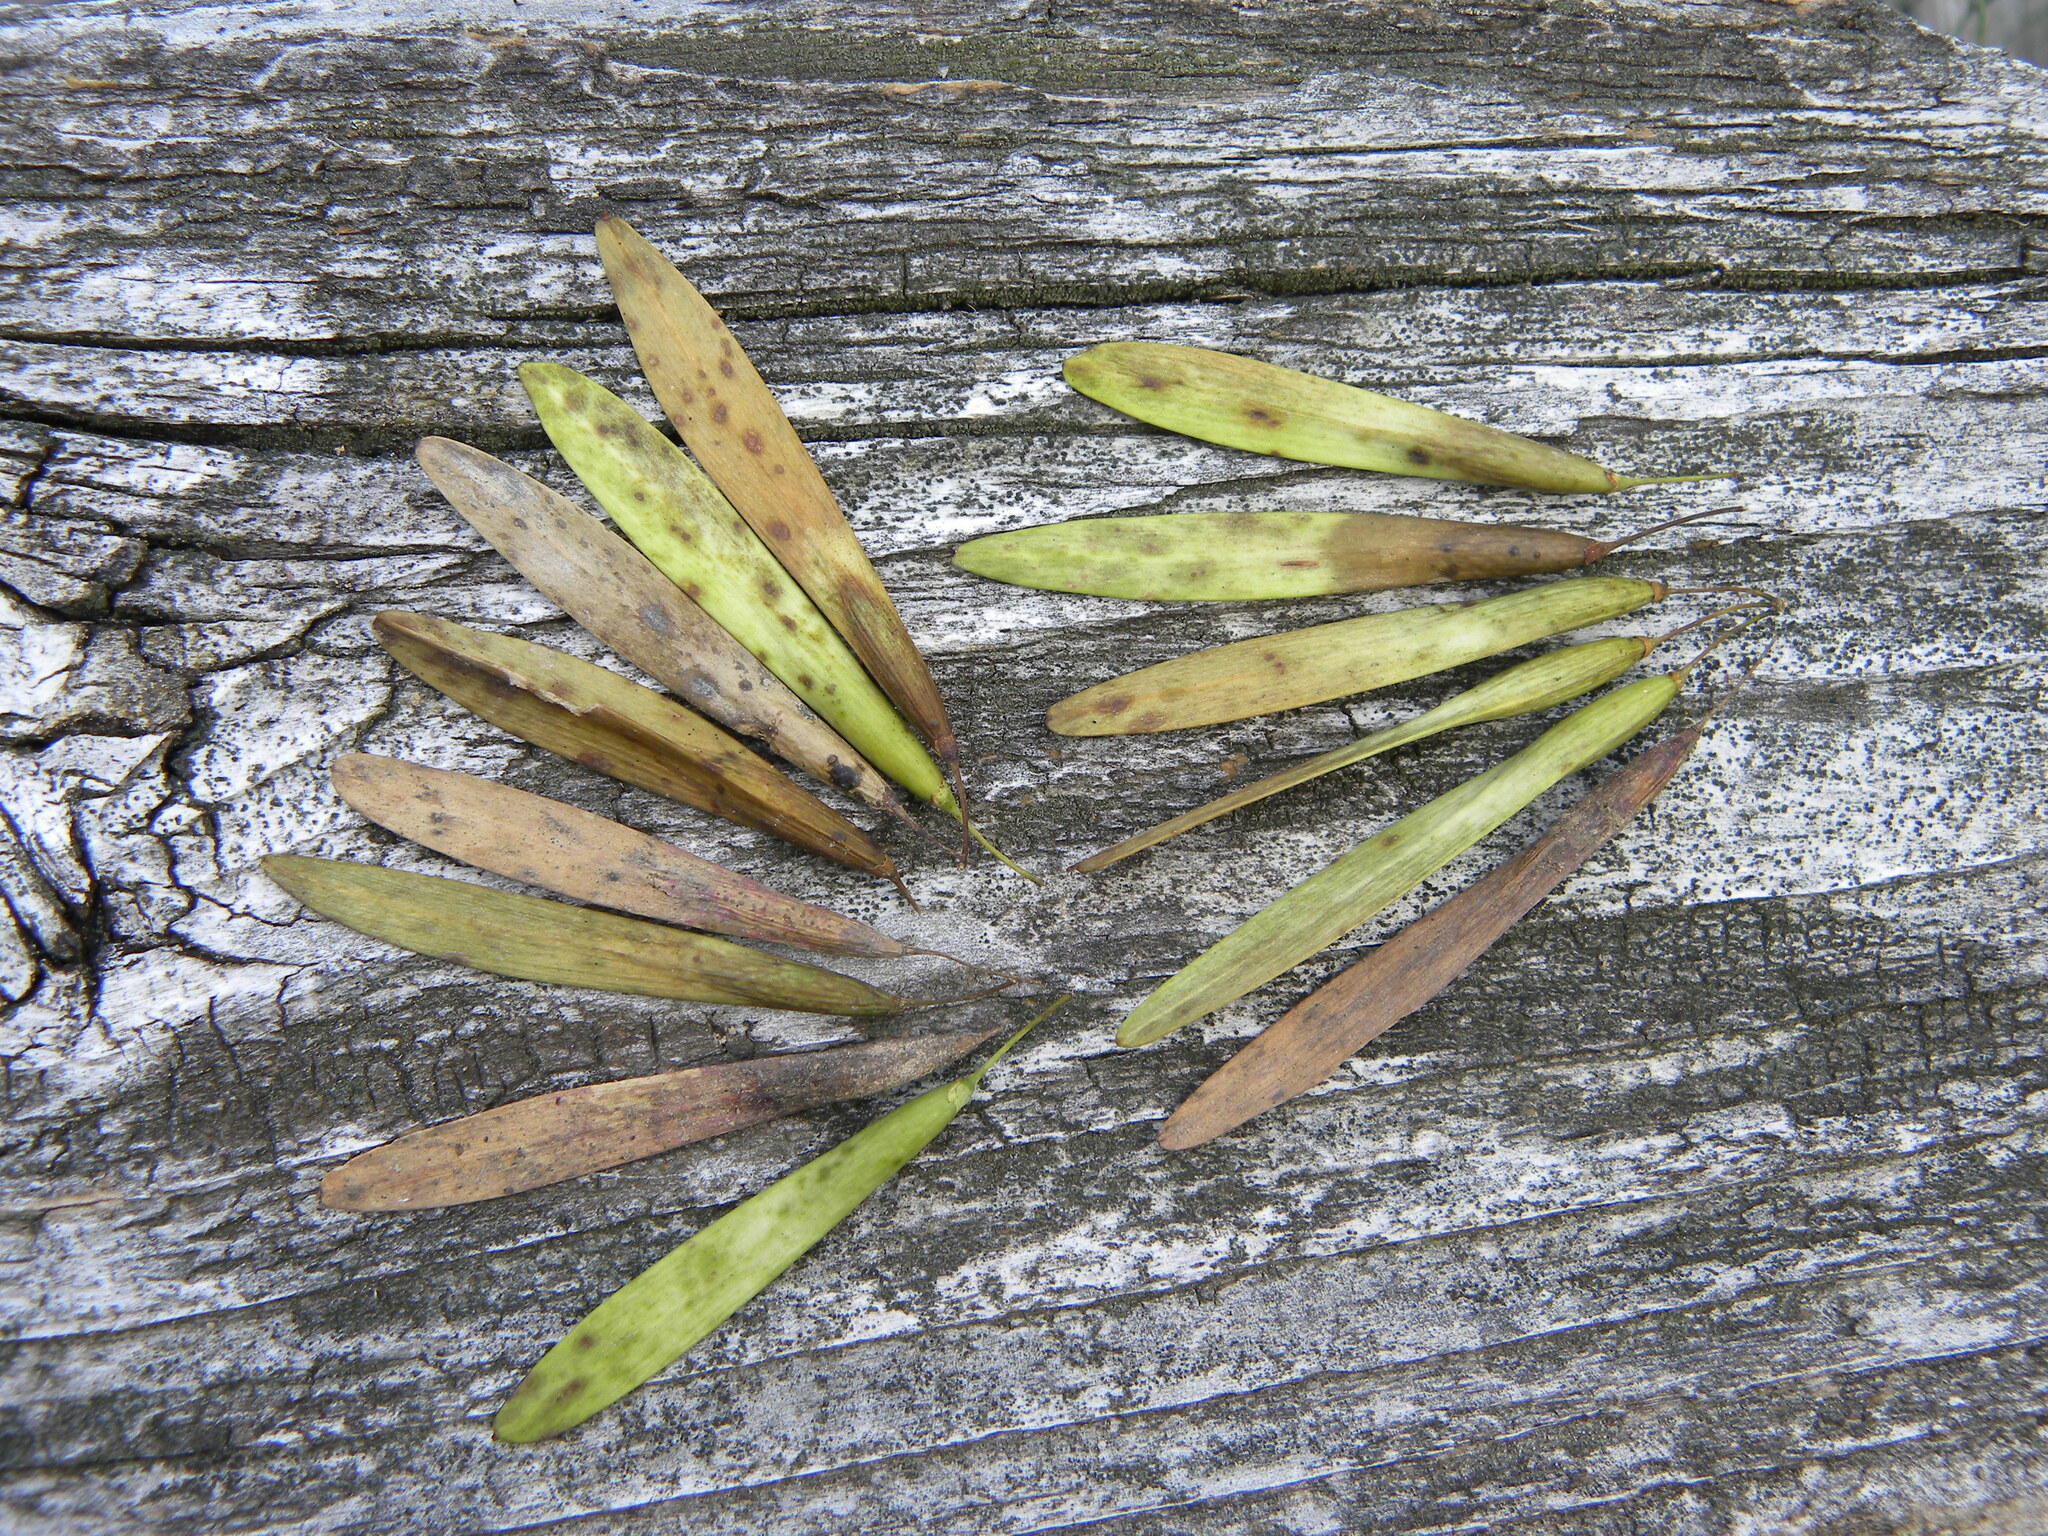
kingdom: Plantae
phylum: Tracheophyta
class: Magnoliopsida
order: Lamiales
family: Oleaceae
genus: Fraxinus
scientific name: Fraxinus americana
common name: White ash
